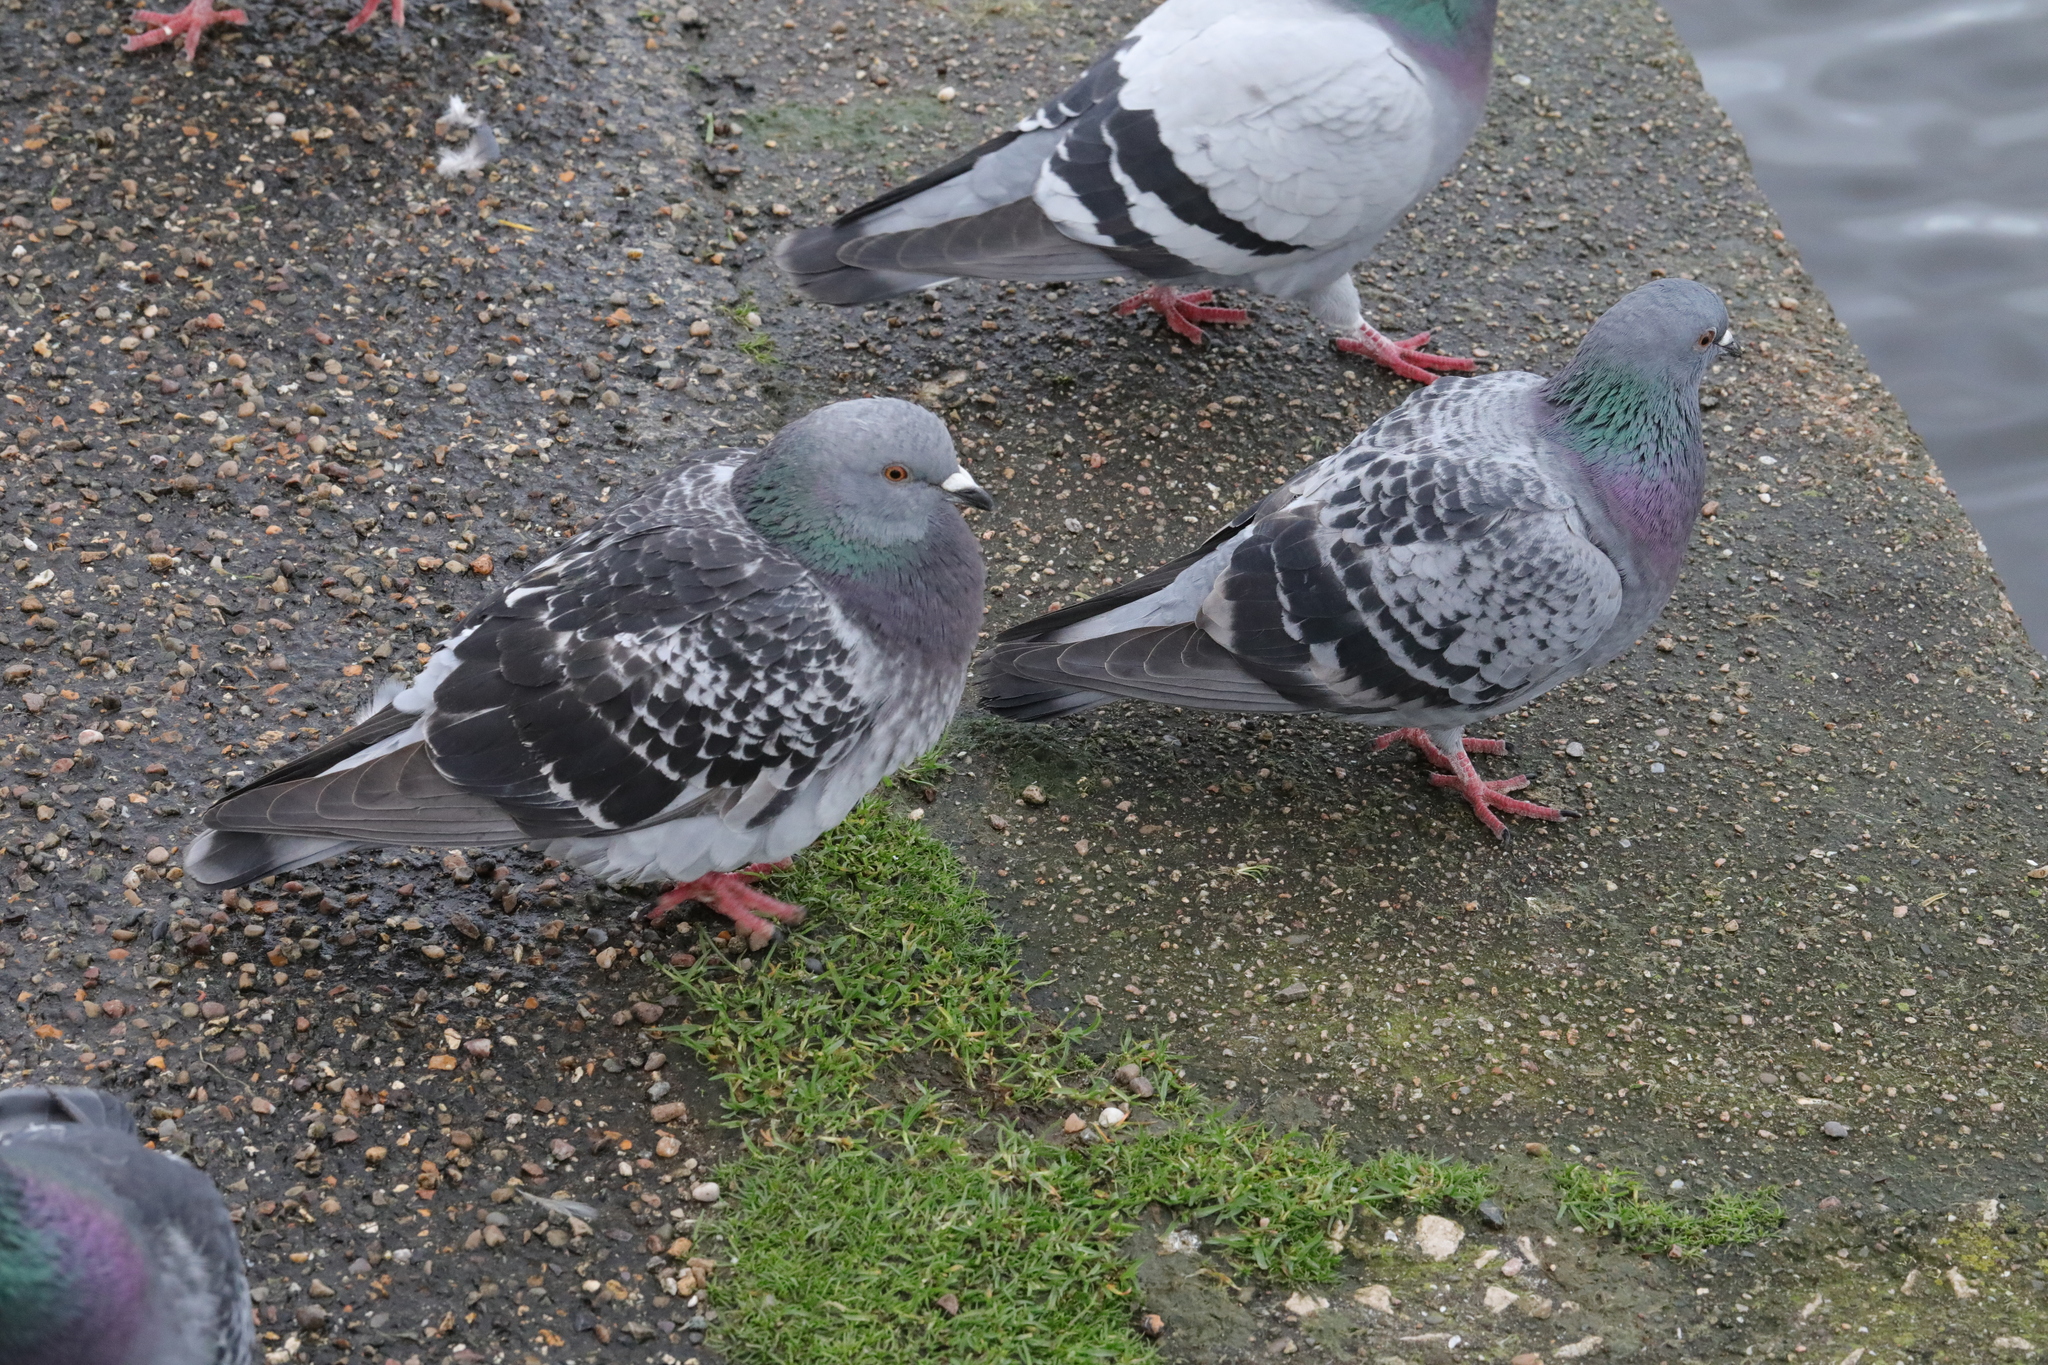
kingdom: Animalia
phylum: Chordata
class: Aves
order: Columbiformes
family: Columbidae
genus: Columba
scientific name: Columba livia
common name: Rock pigeon
